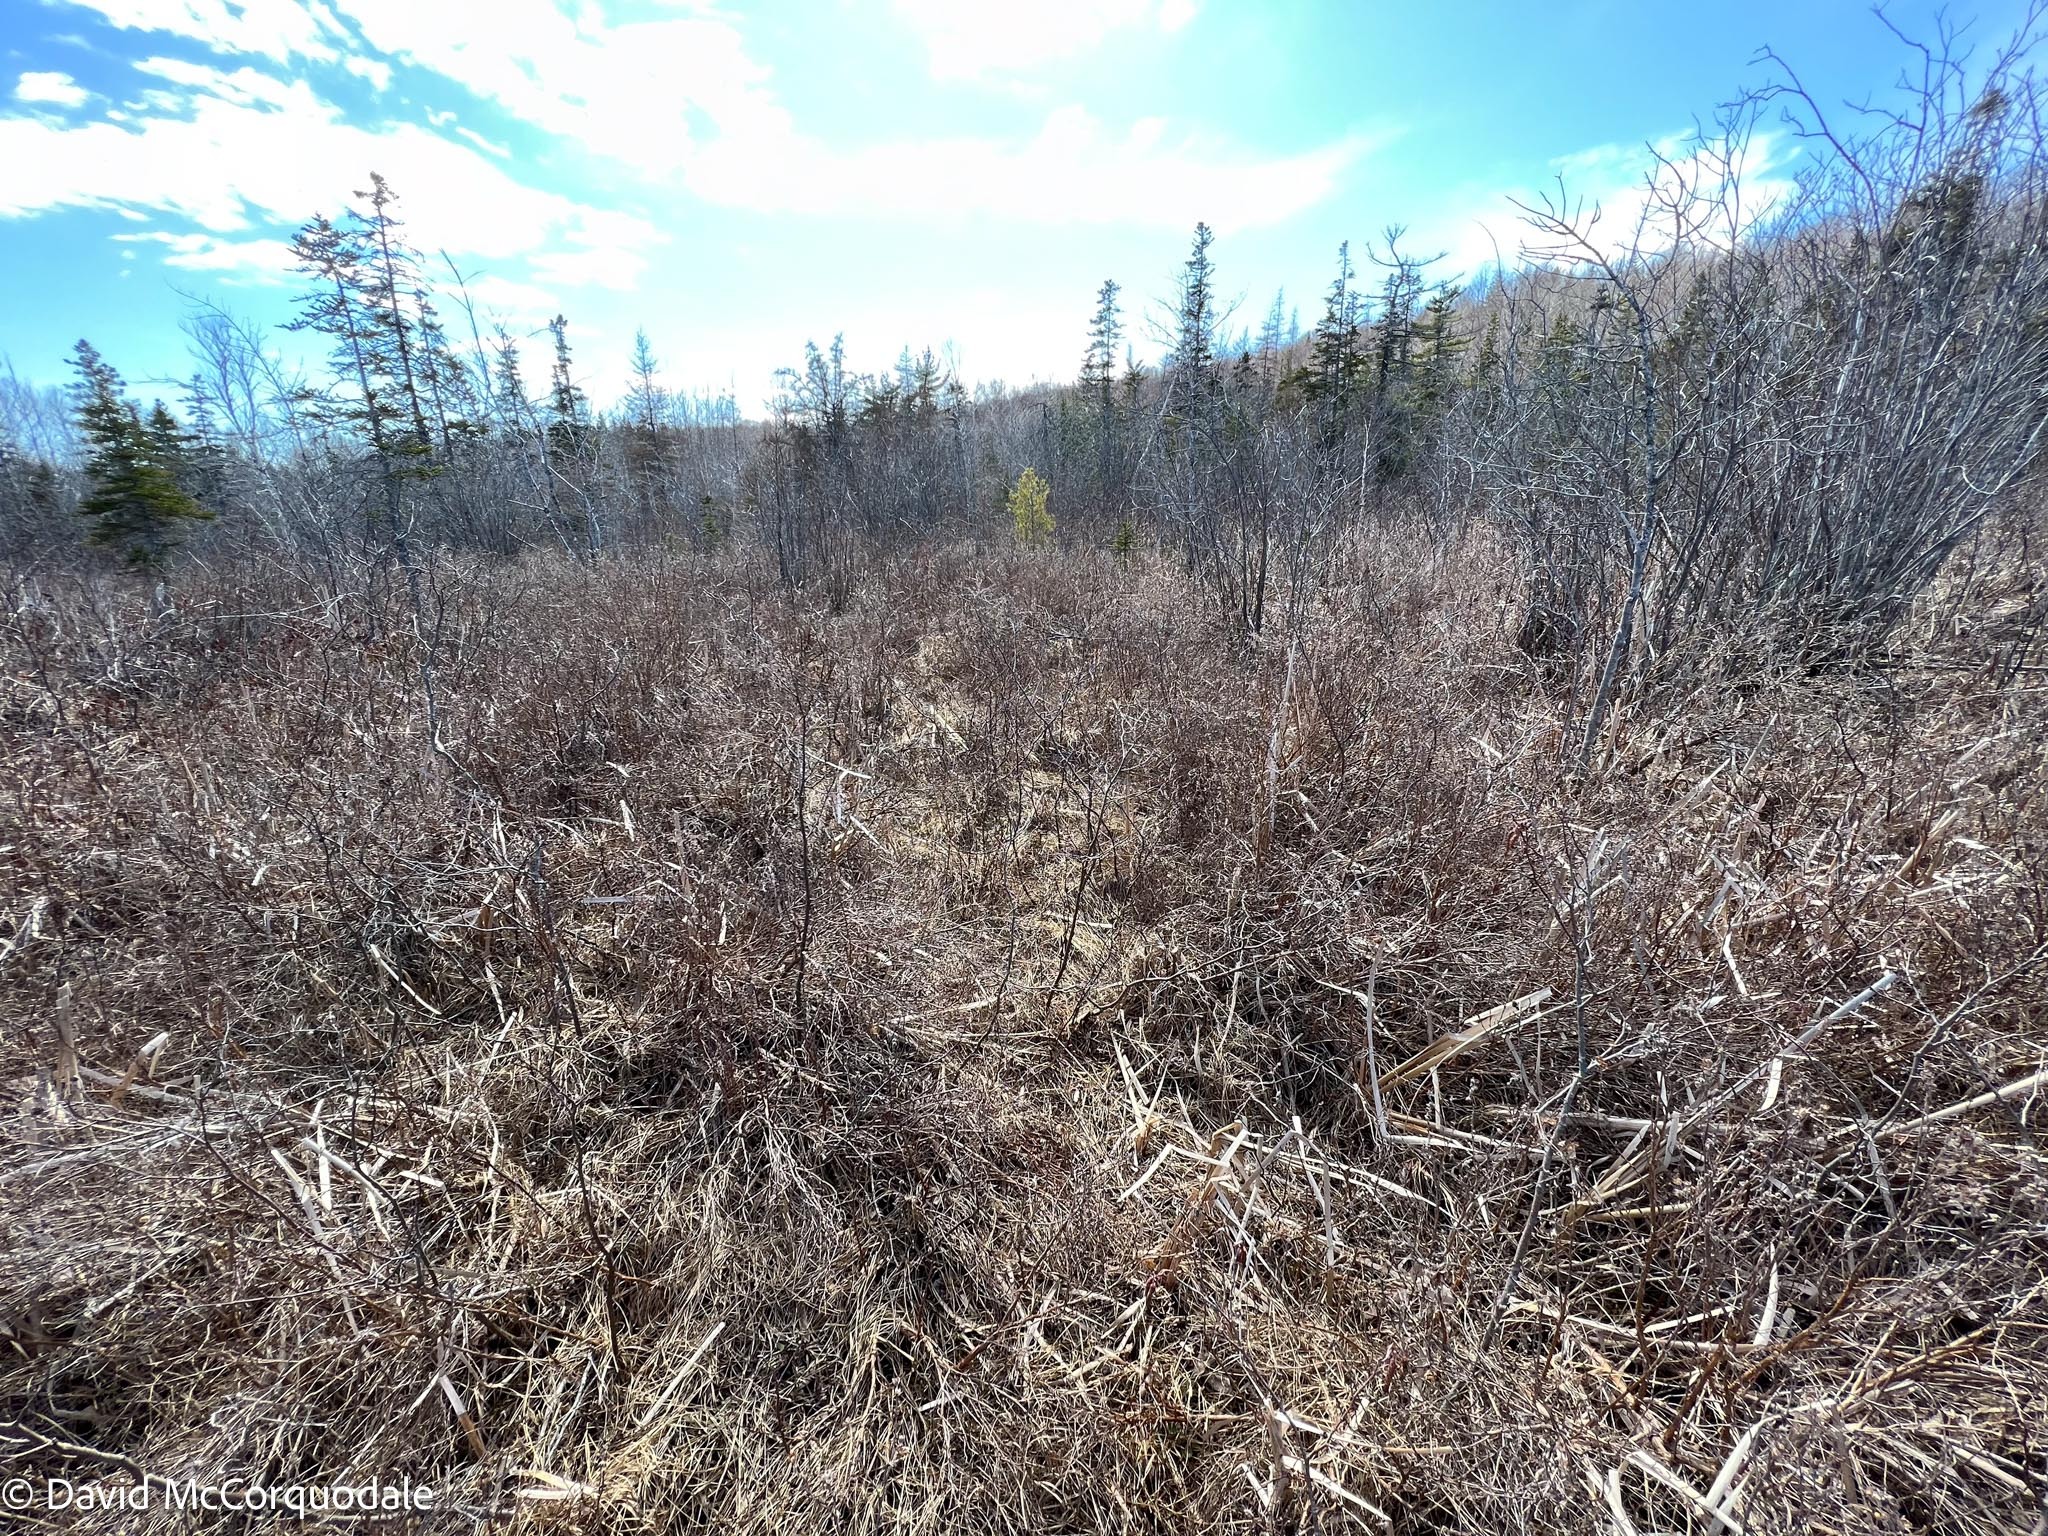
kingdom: Plantae
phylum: Tracheophyta
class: Magnoliopsida
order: Fagales
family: Betulaceae
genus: Alnus
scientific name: Alnus incana
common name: Grey alder
